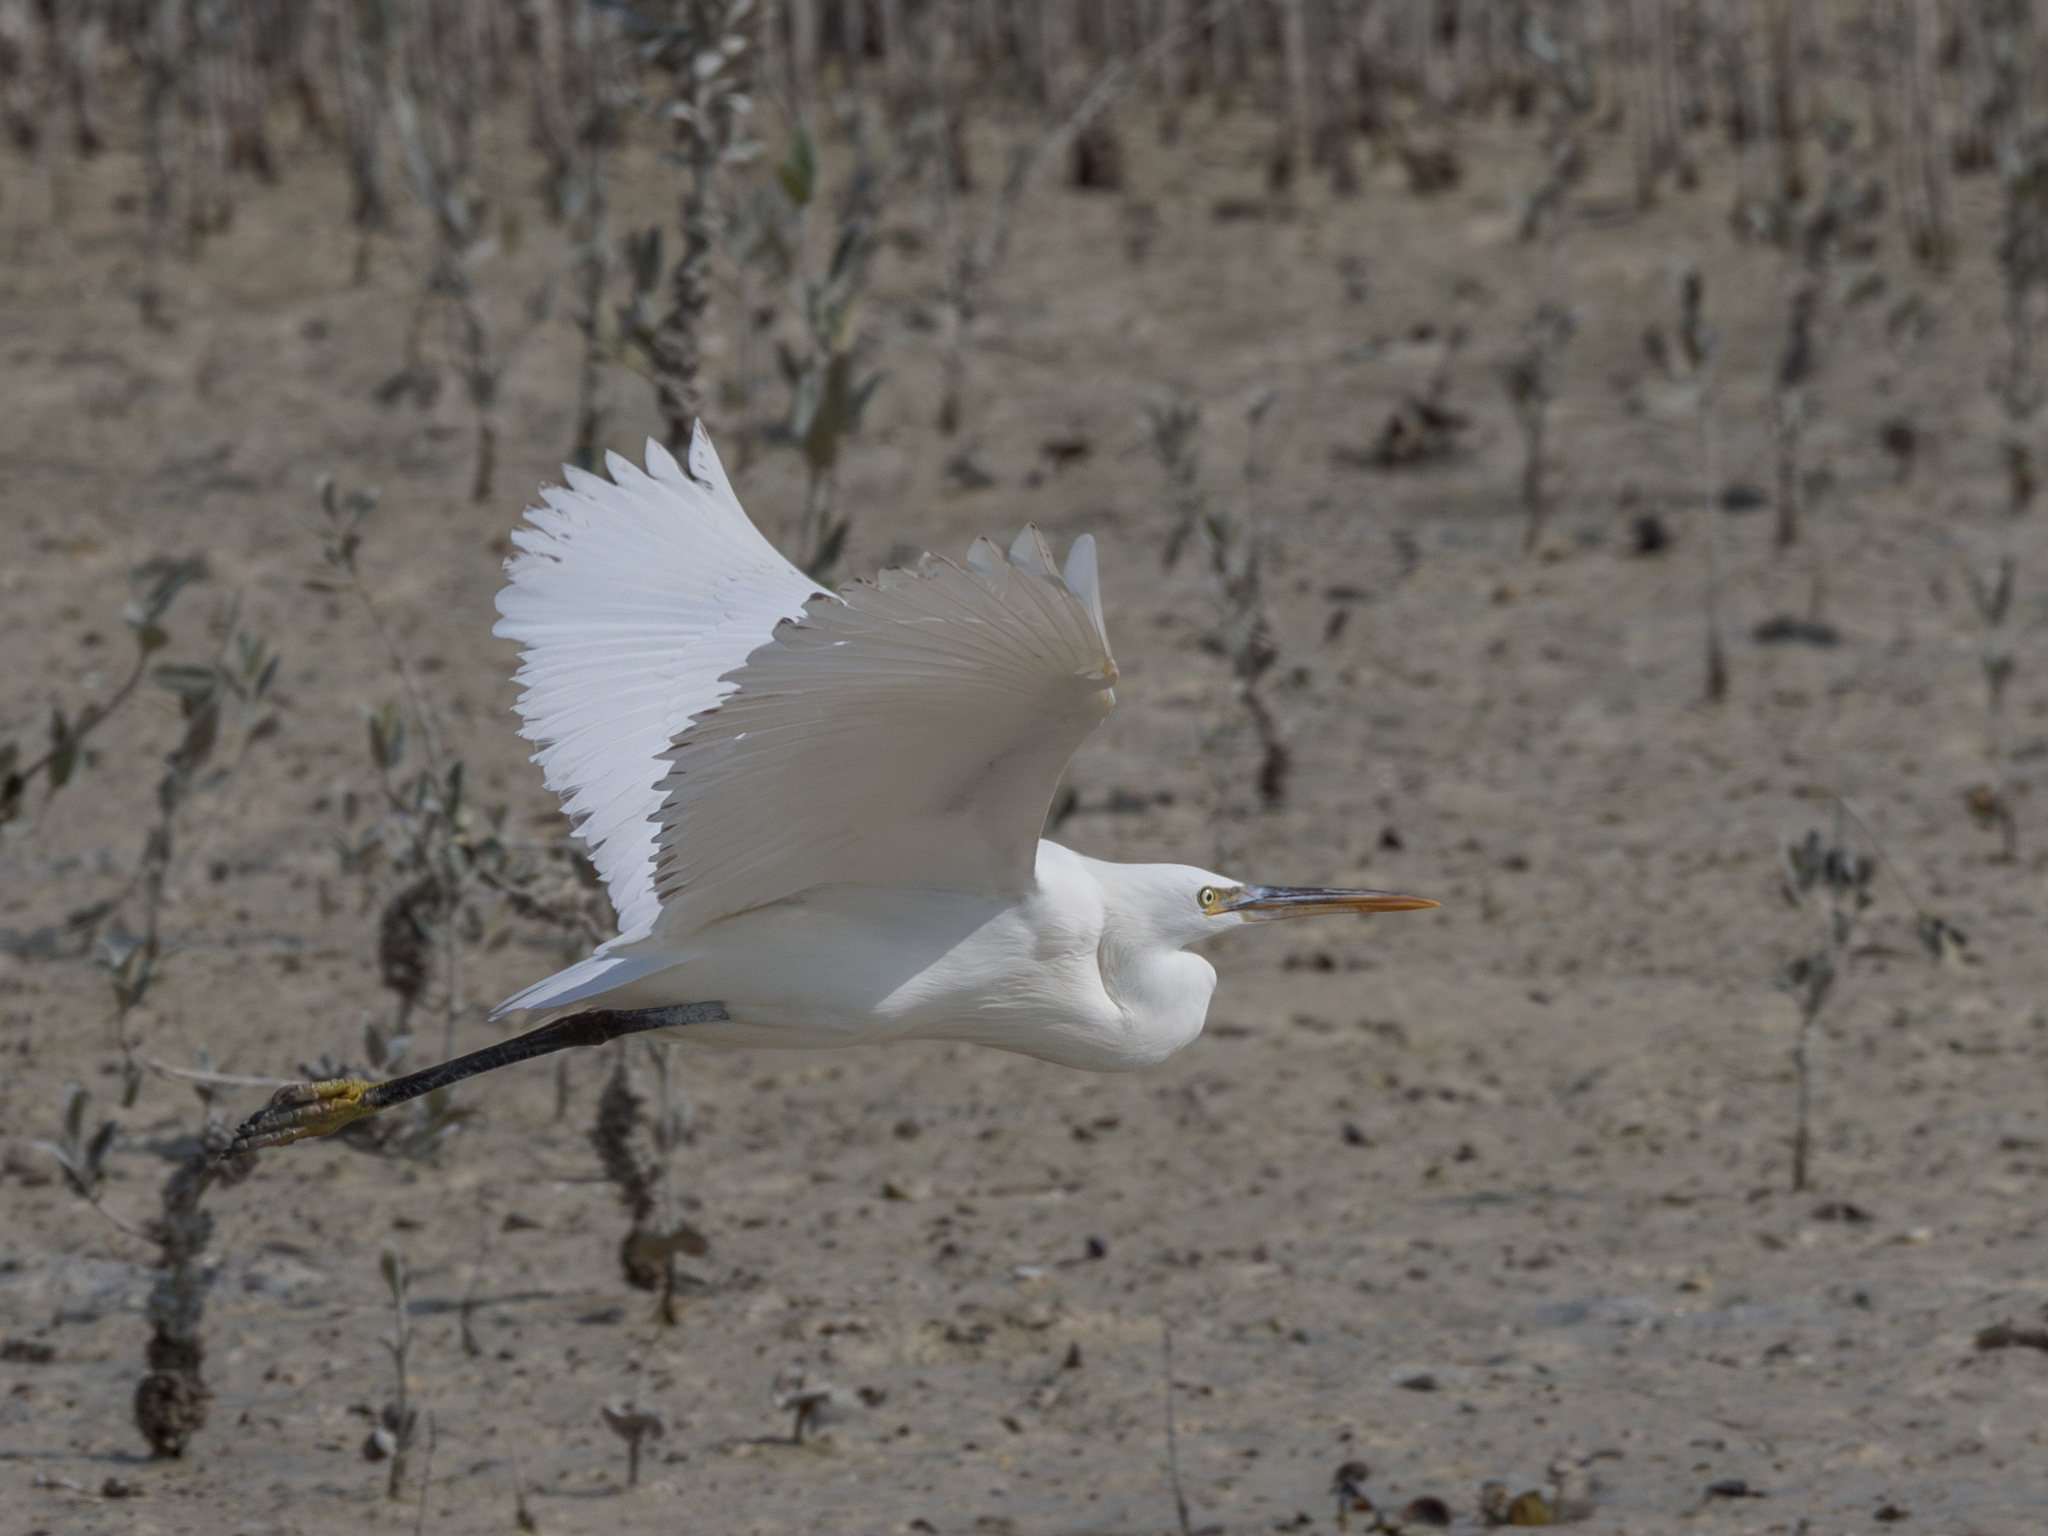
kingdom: Animalia
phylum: Chordata
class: Aves
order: Pelecaniformes
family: Ardeidae
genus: Egretta
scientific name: Egretta gularis
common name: Western reef-heron
